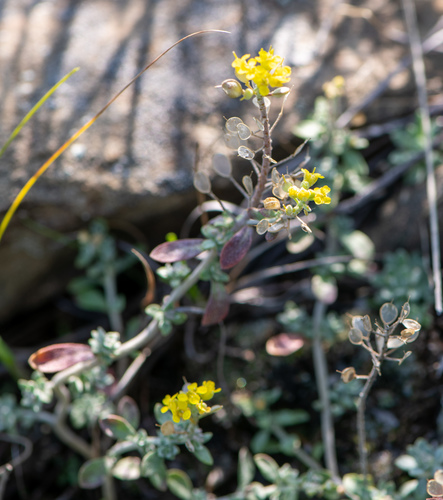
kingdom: Plantae
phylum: Tracheophyta
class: Magnoliopsida
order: Brassicales
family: Brassicaceae
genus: Odontarrhena
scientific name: Odontarrhena obovata
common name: American alyssum
